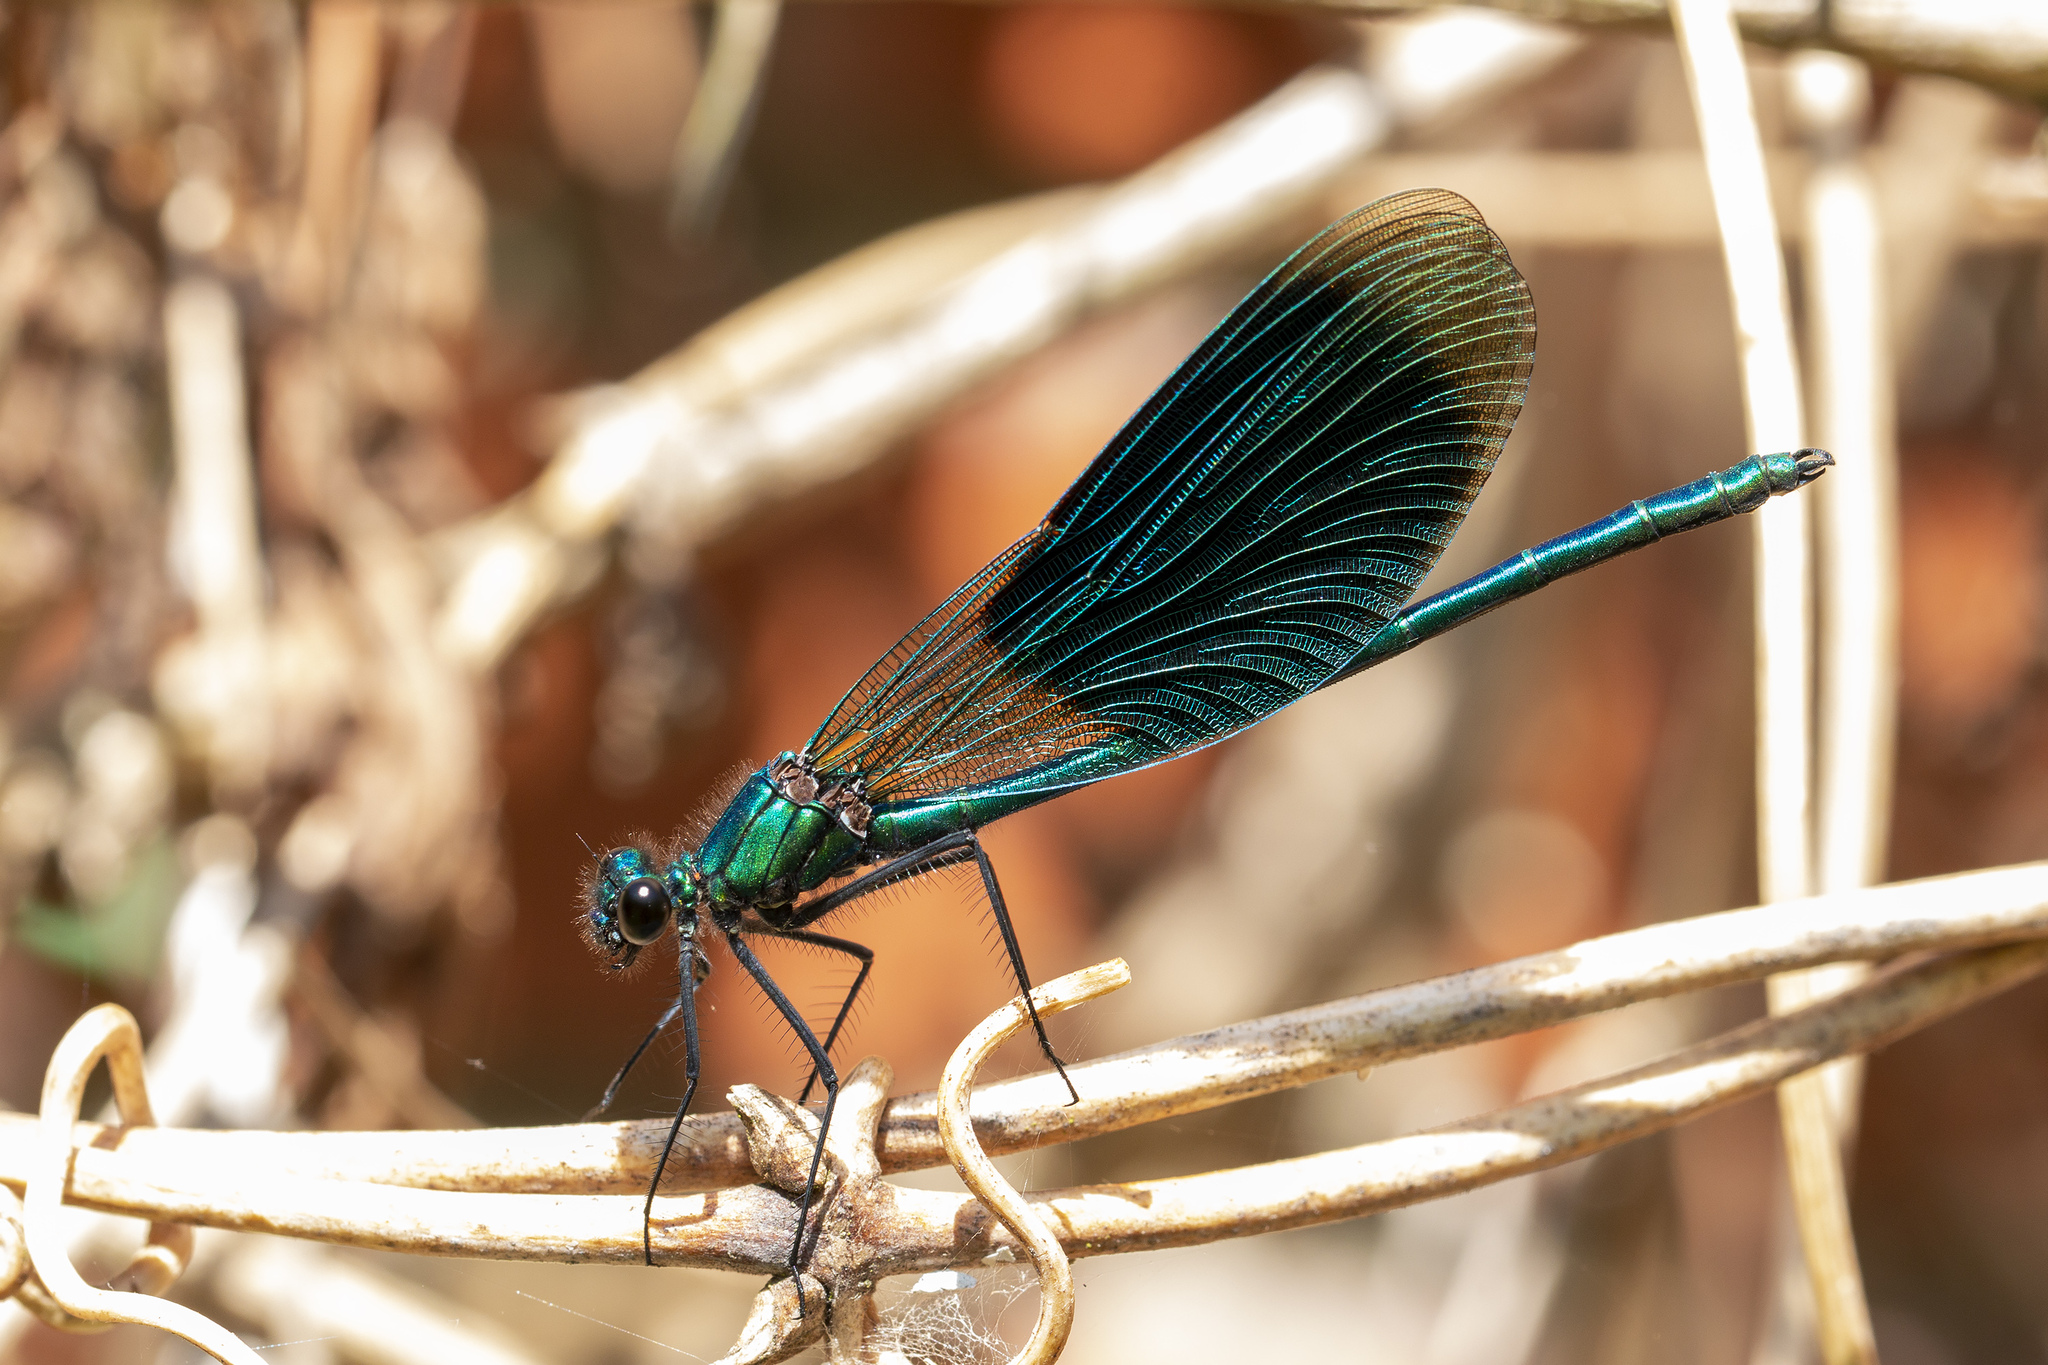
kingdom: Animalia
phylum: Arthropoda
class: Insecta
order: Odonata
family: Calopterygidae
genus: Calopteryx
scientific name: Calopteryx splendens
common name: Banded demoiselle
